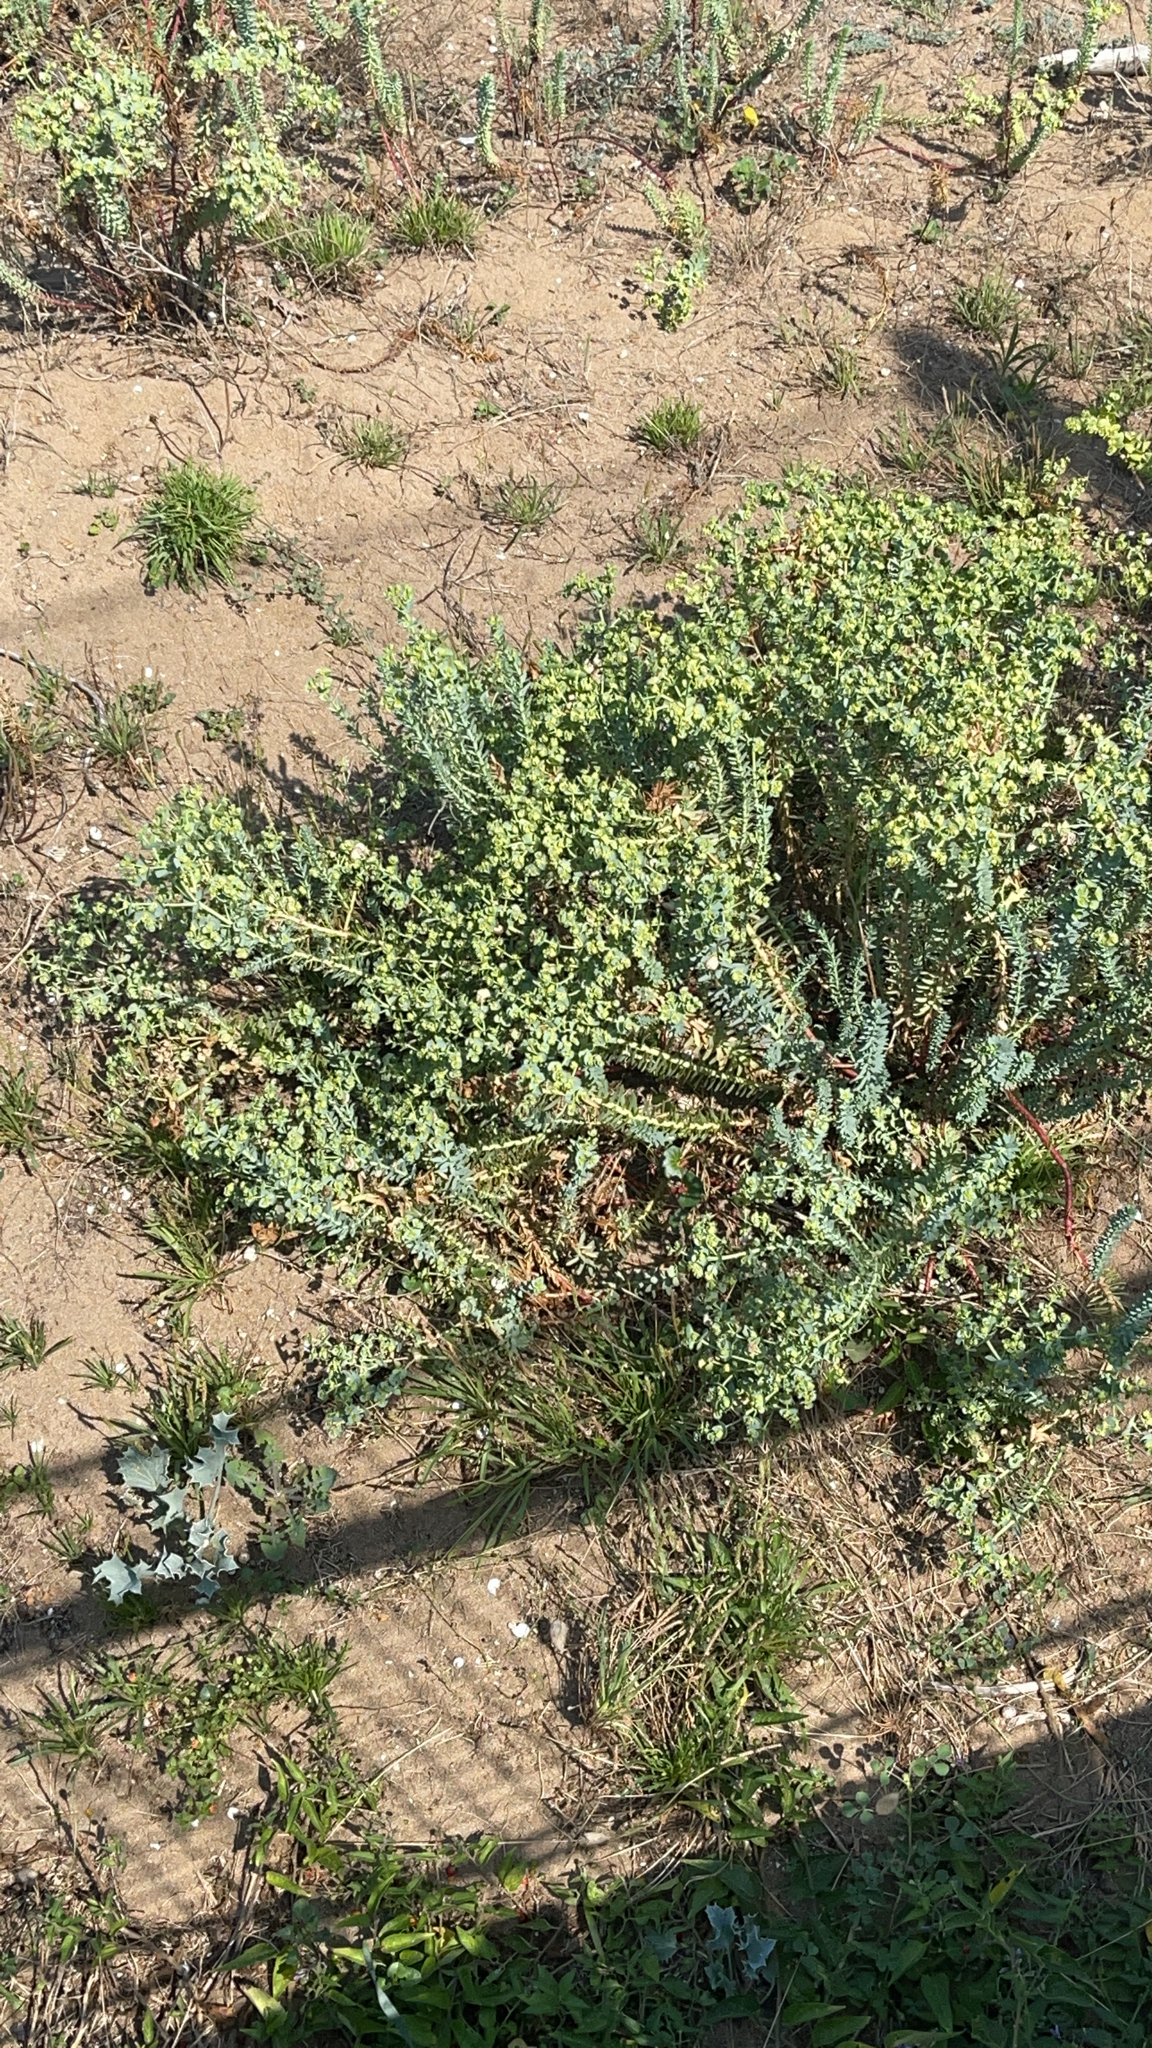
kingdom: Plantae
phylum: Tracheophyta
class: Magnoliopsida
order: Malpighiales
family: Euphorbiaceae
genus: Euphorbia
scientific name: Euphorbia paralias
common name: Sea spurge
